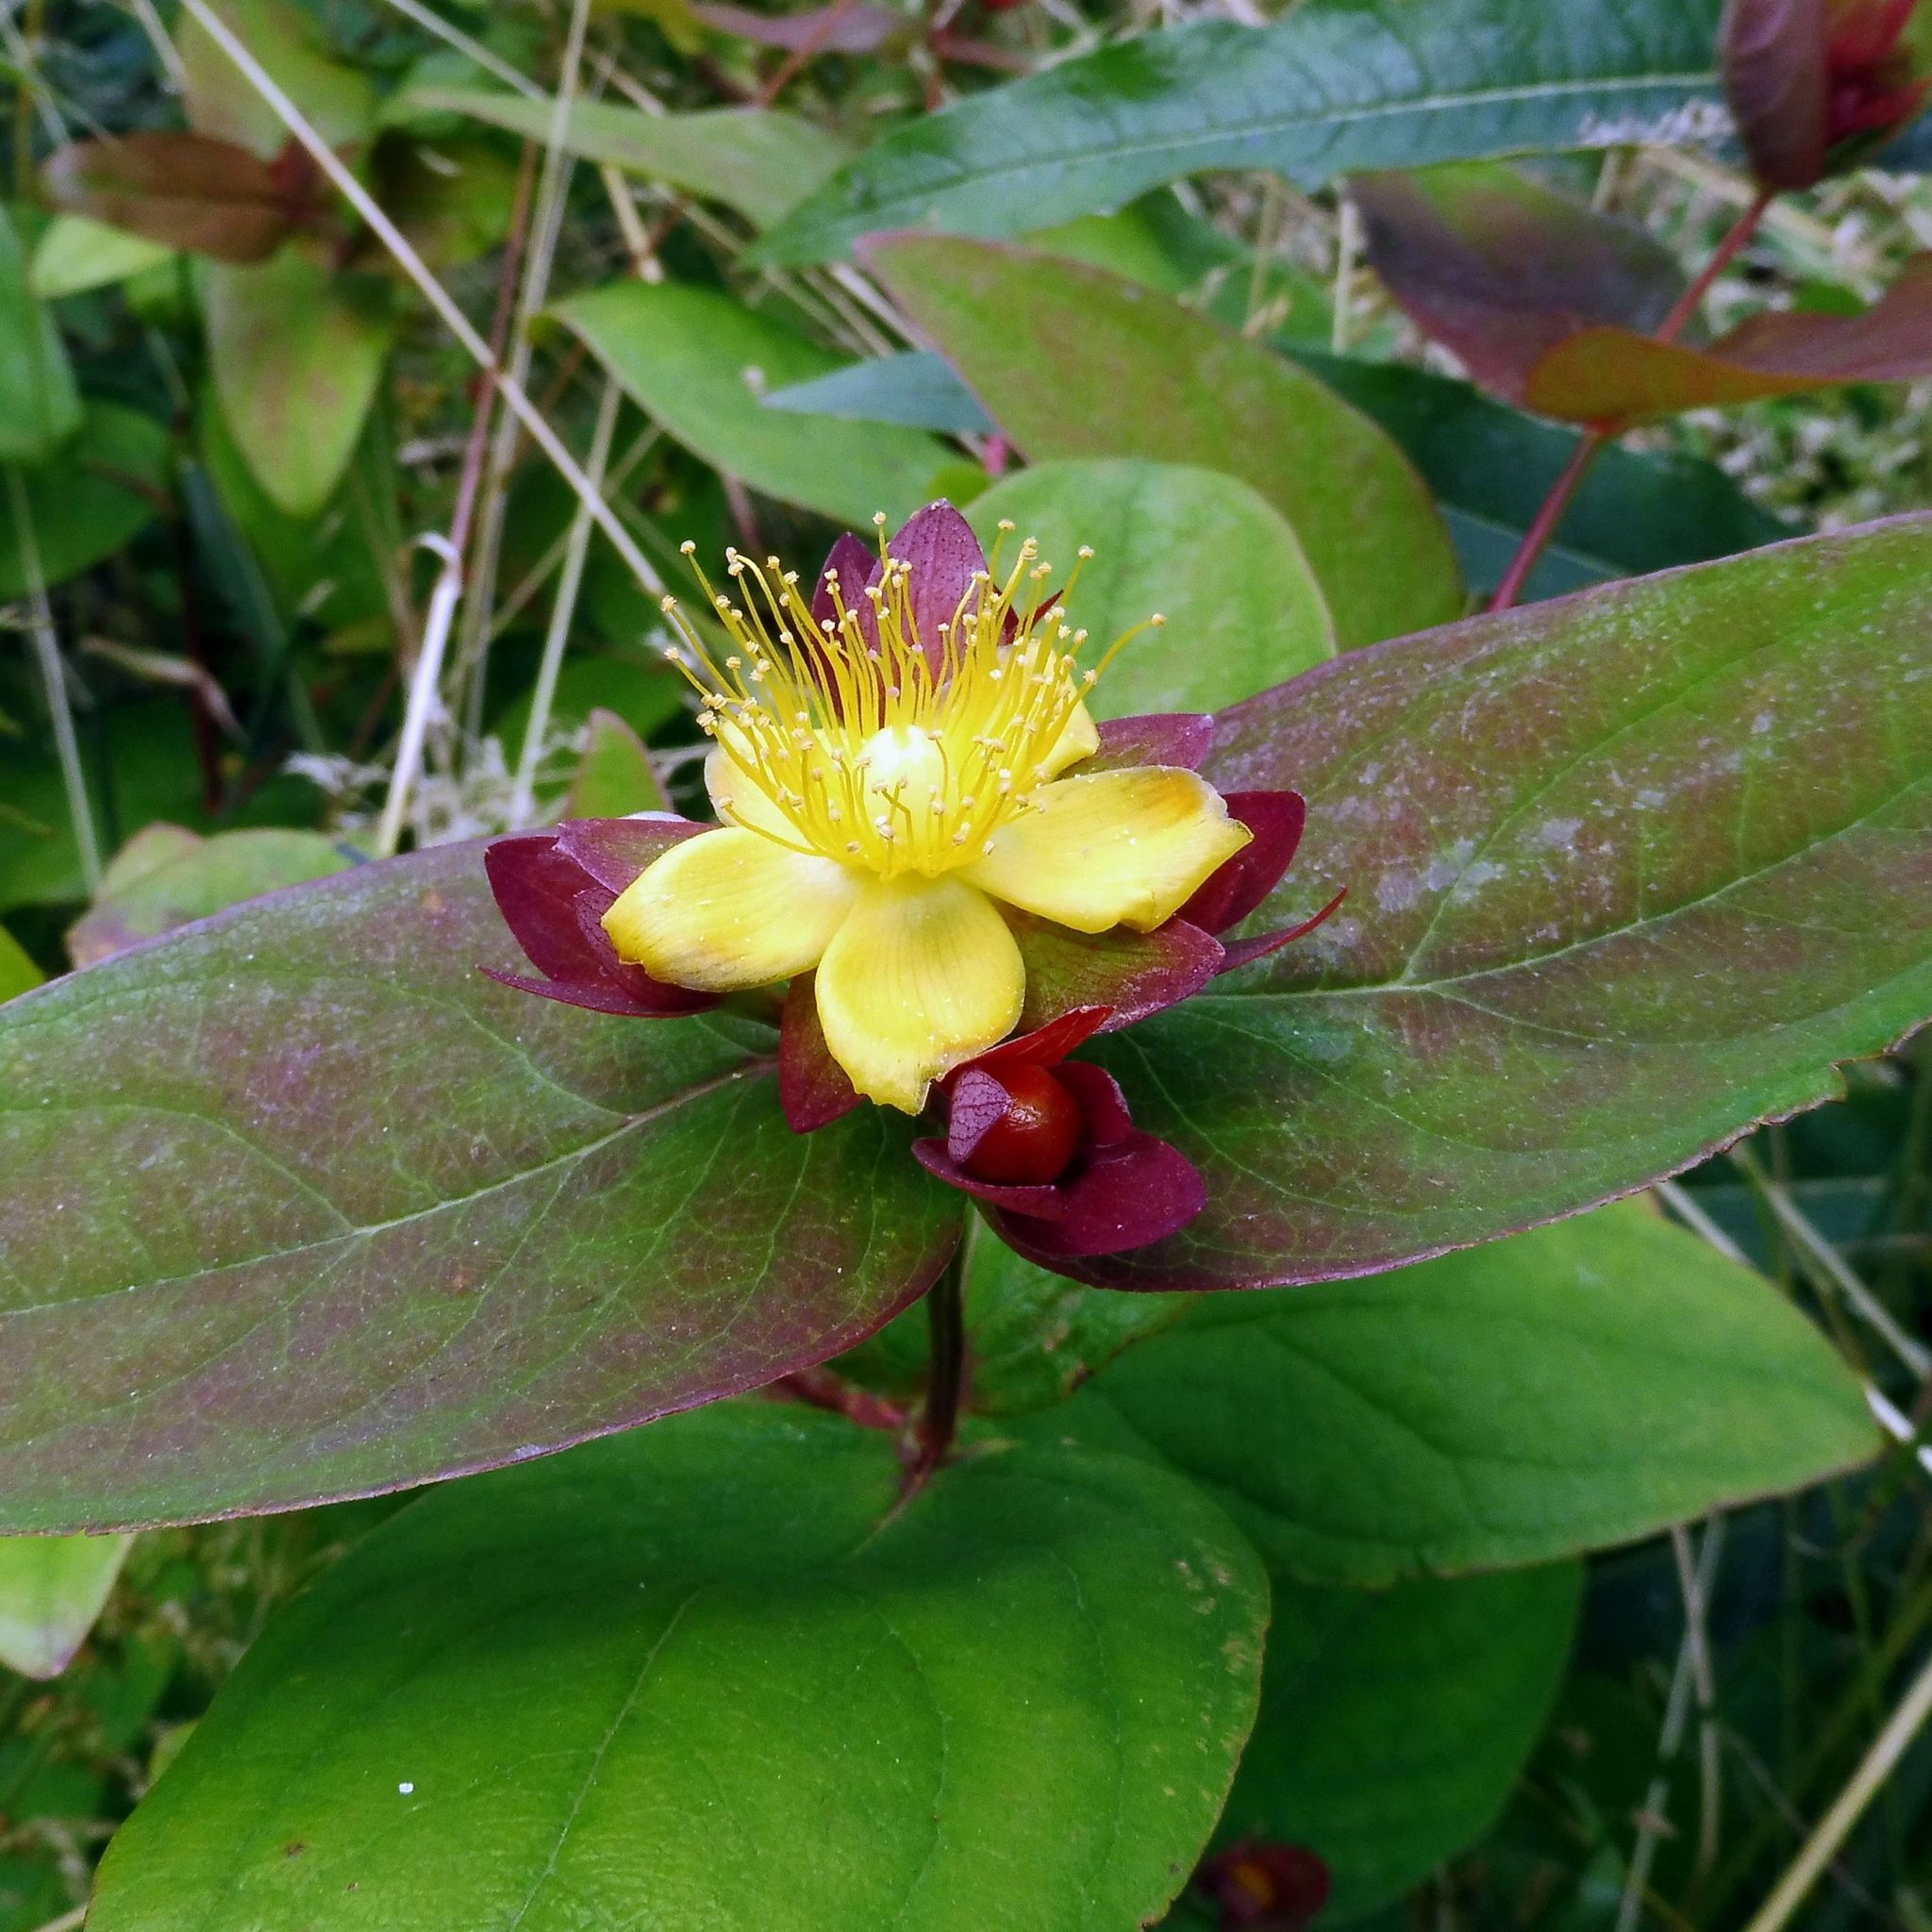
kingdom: Plantae
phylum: Tracheophyta
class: Magnoliopsida
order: Malpighiales
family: Hypericaceae
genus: Hypericum
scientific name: Hypericum androsaemum
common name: Sweet-amber
